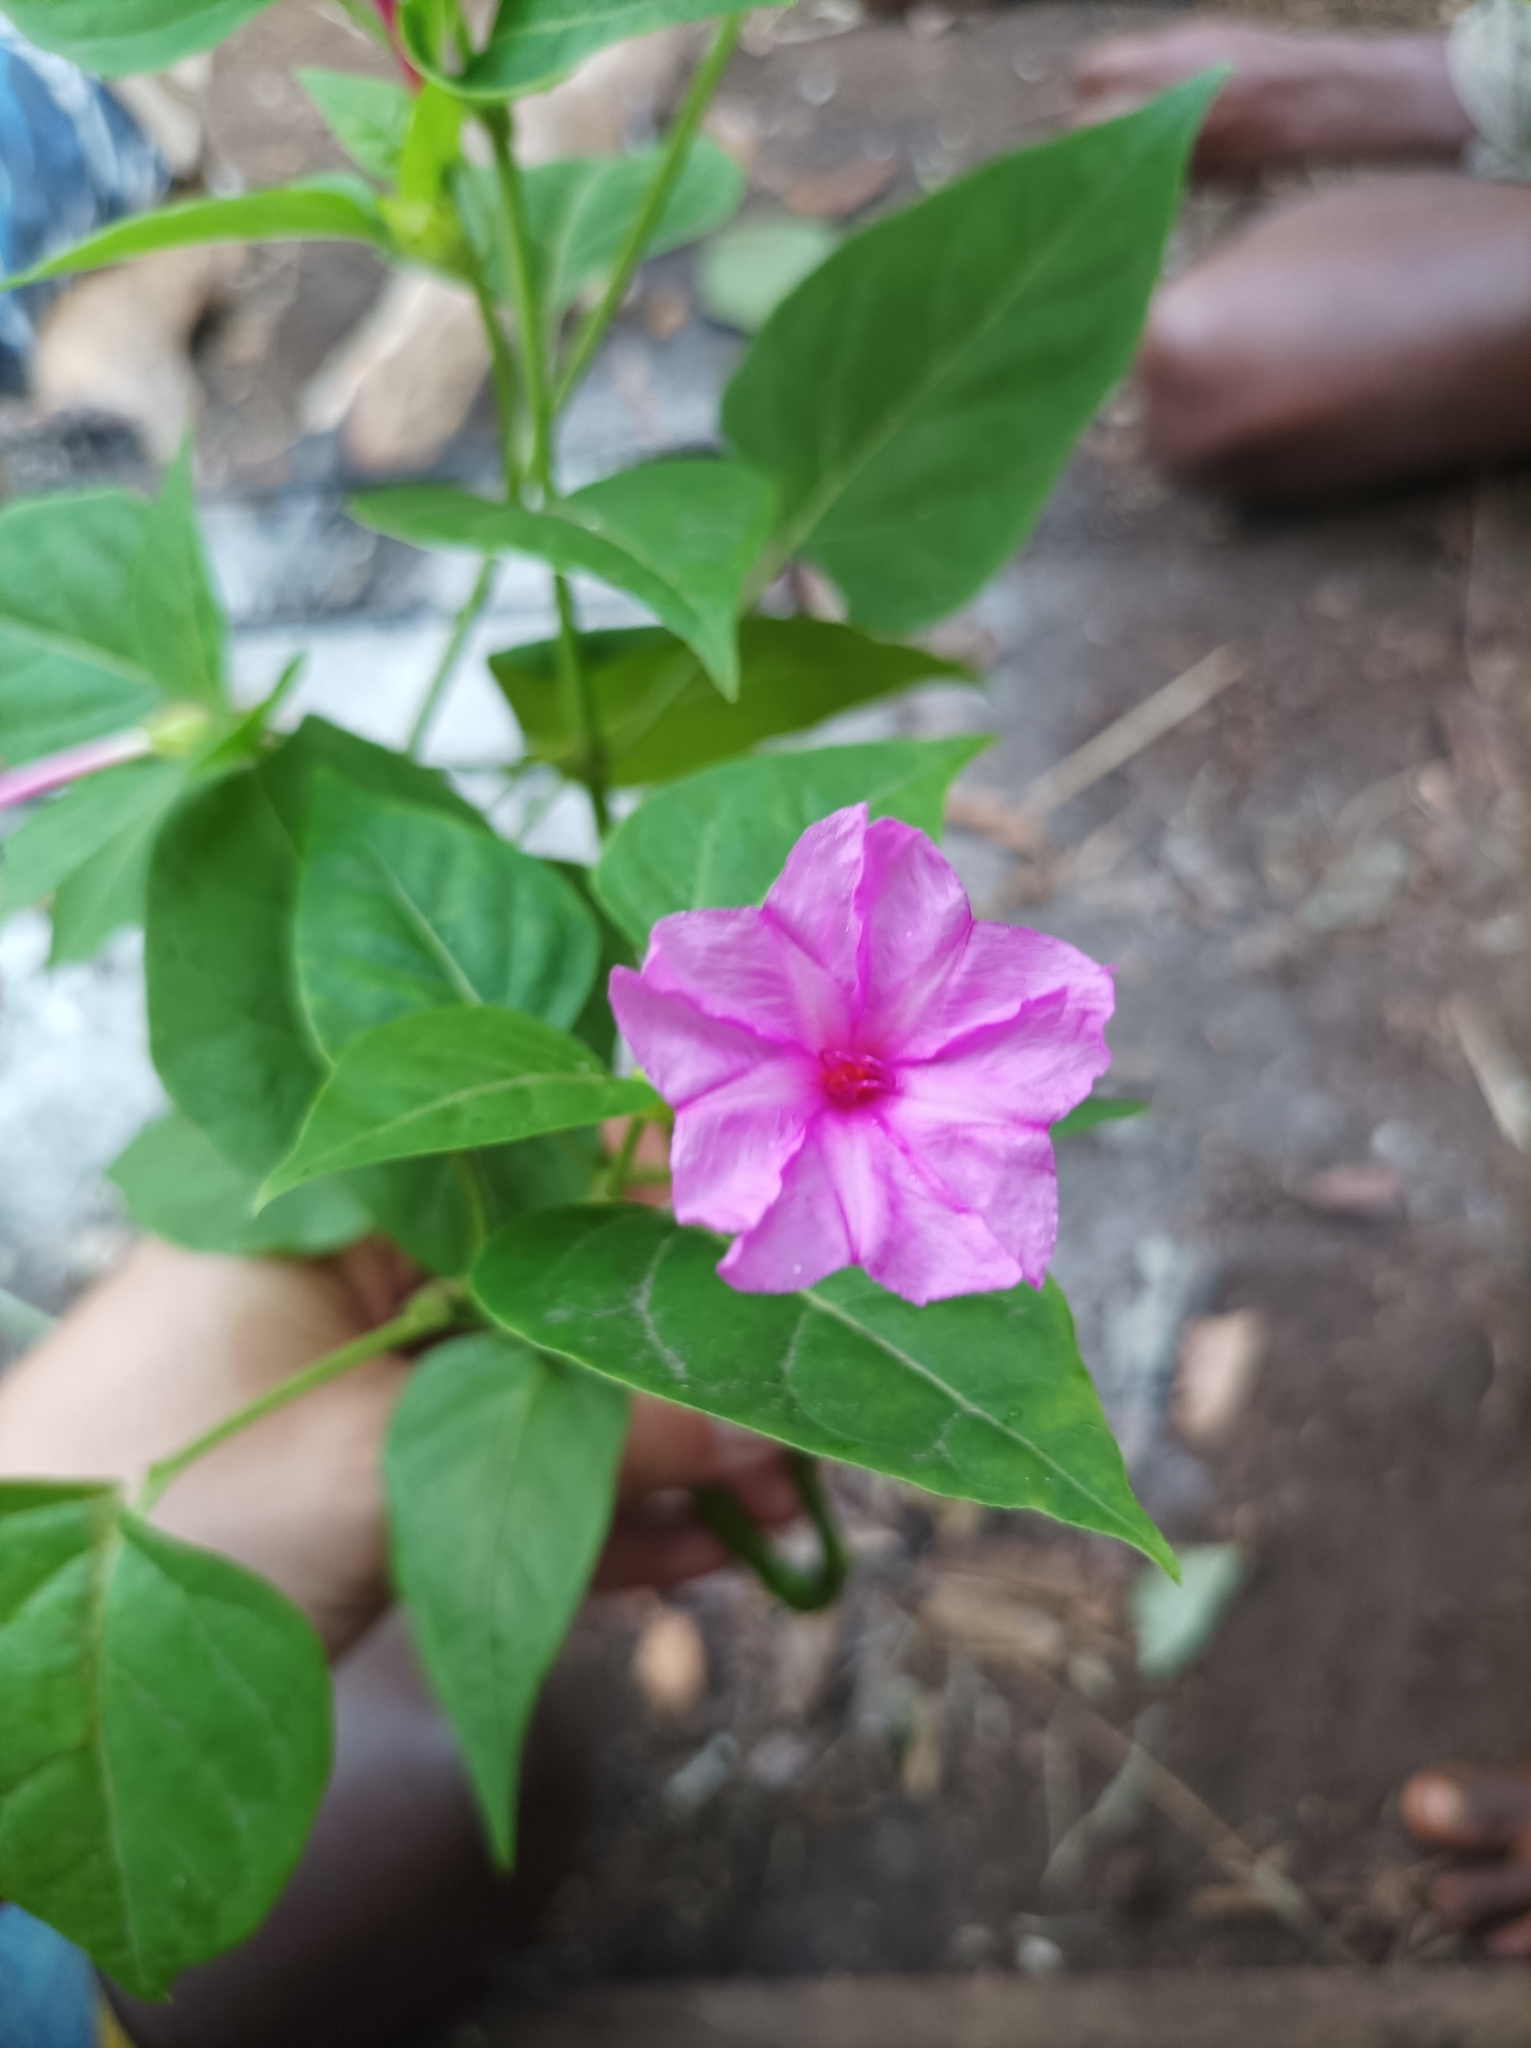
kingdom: Plantae
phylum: Tracheophyta
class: Magnoliopsida
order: Caryophyllales
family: Nyctaginaceae
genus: Mirabilis
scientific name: Mirabilis jalapa
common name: Marvel-of-peru
